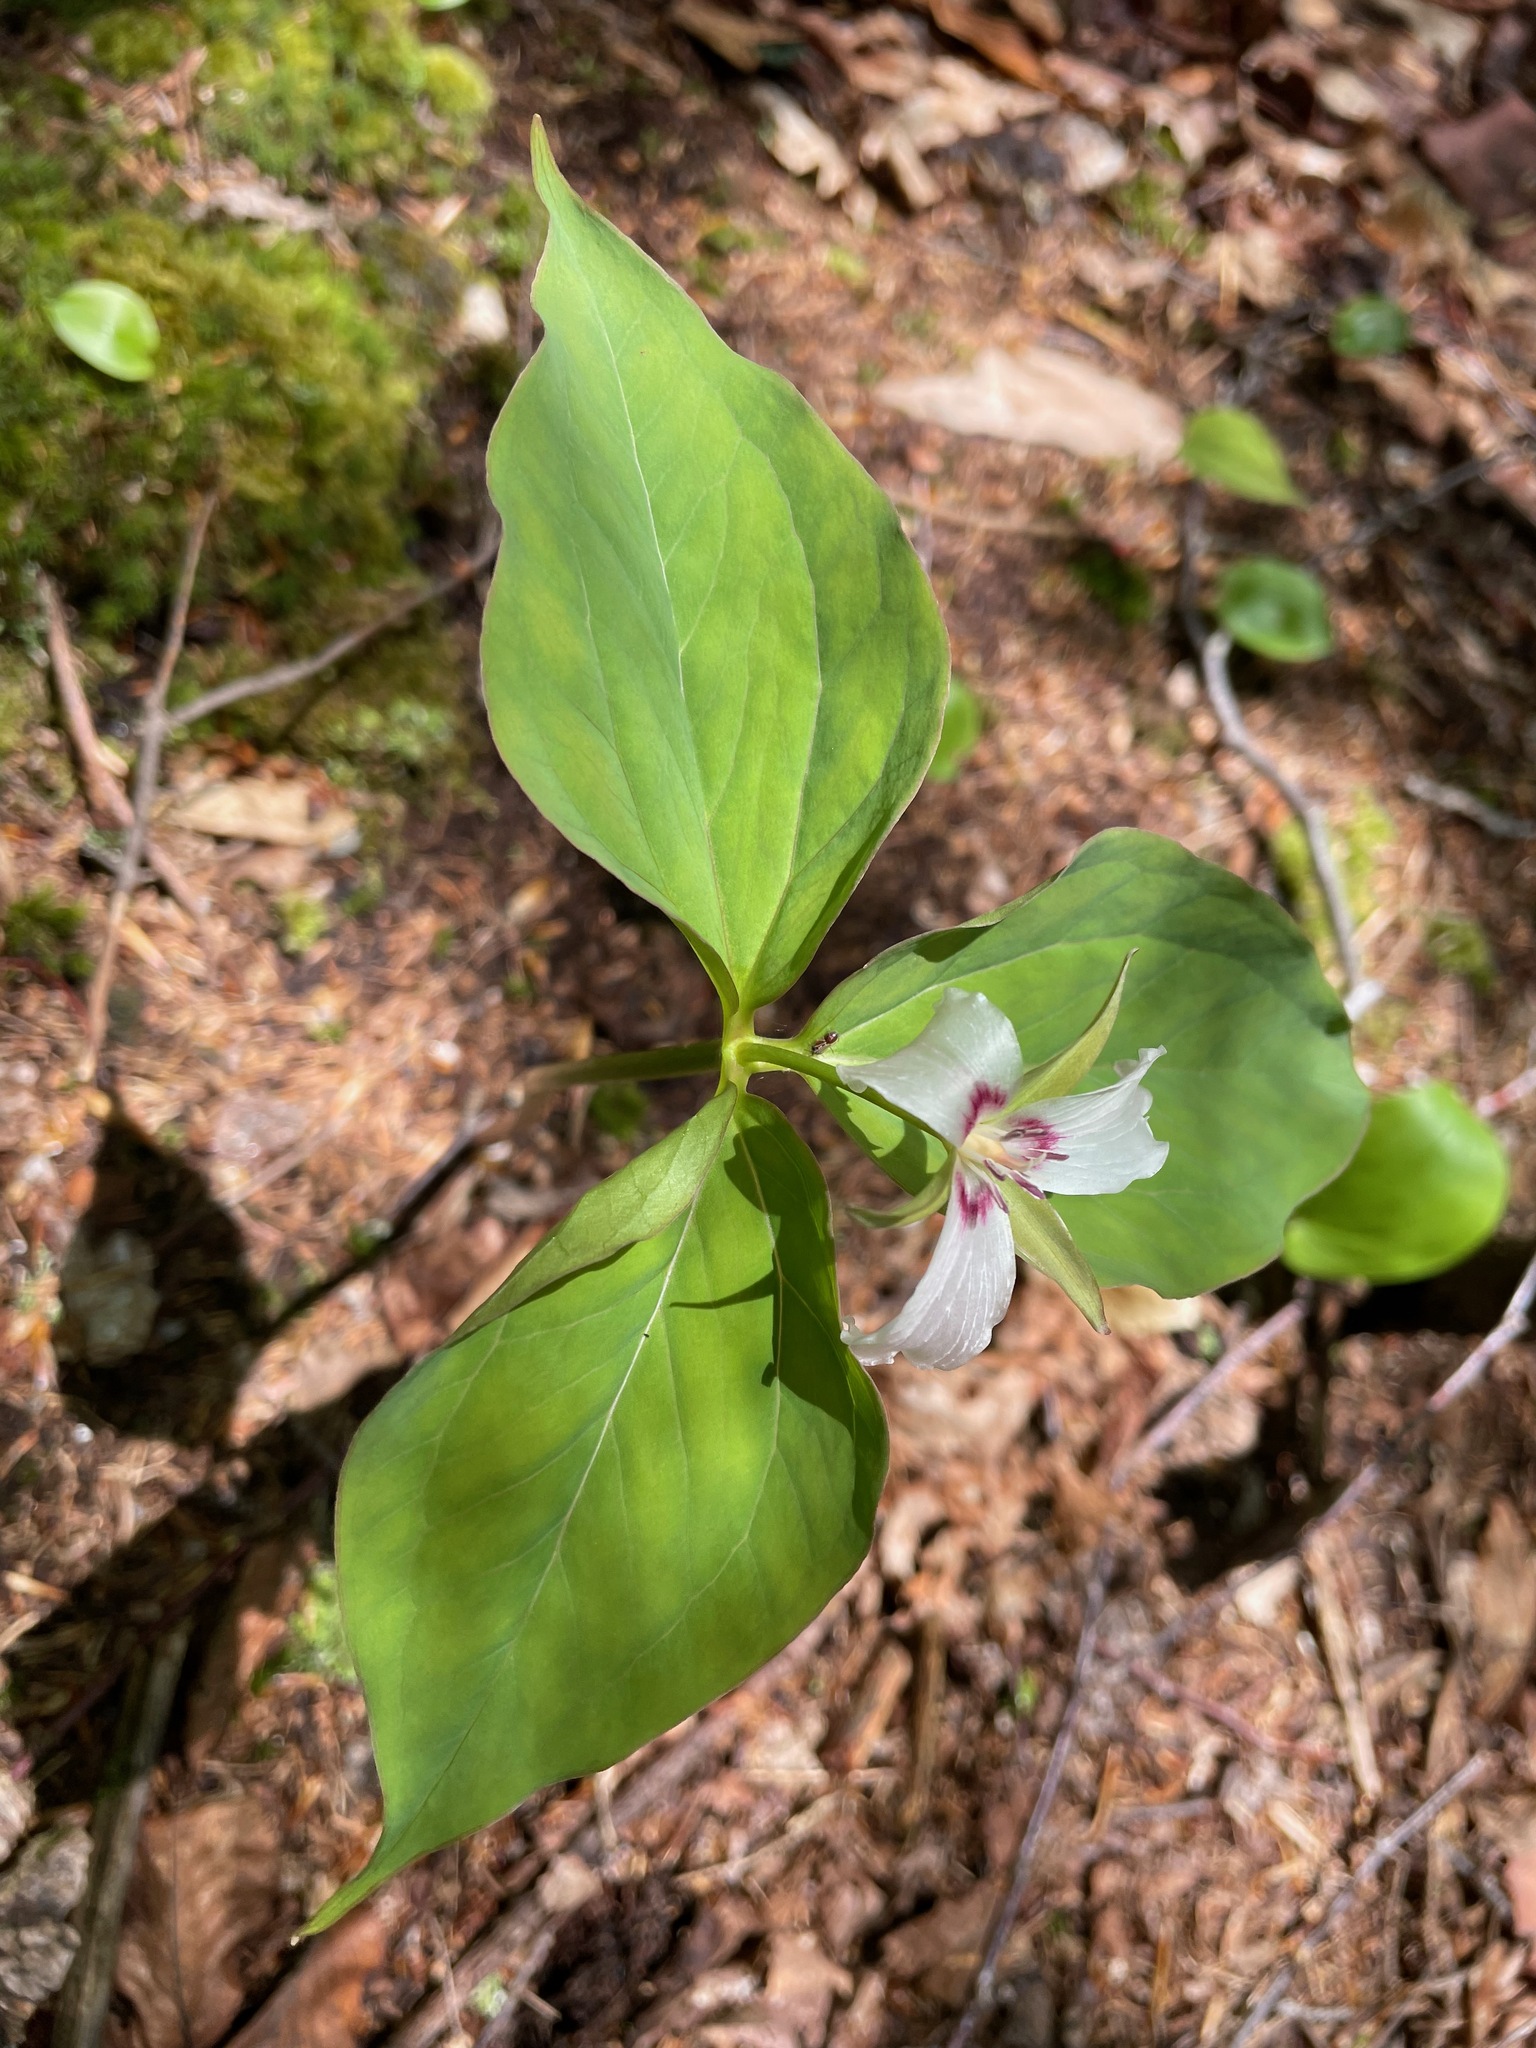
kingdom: Plantae
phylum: Tracheophyta
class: Liliopsida
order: Liliales
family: Melanthiaceae
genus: Trillium
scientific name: Trillium undulatum
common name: Paint trillium
